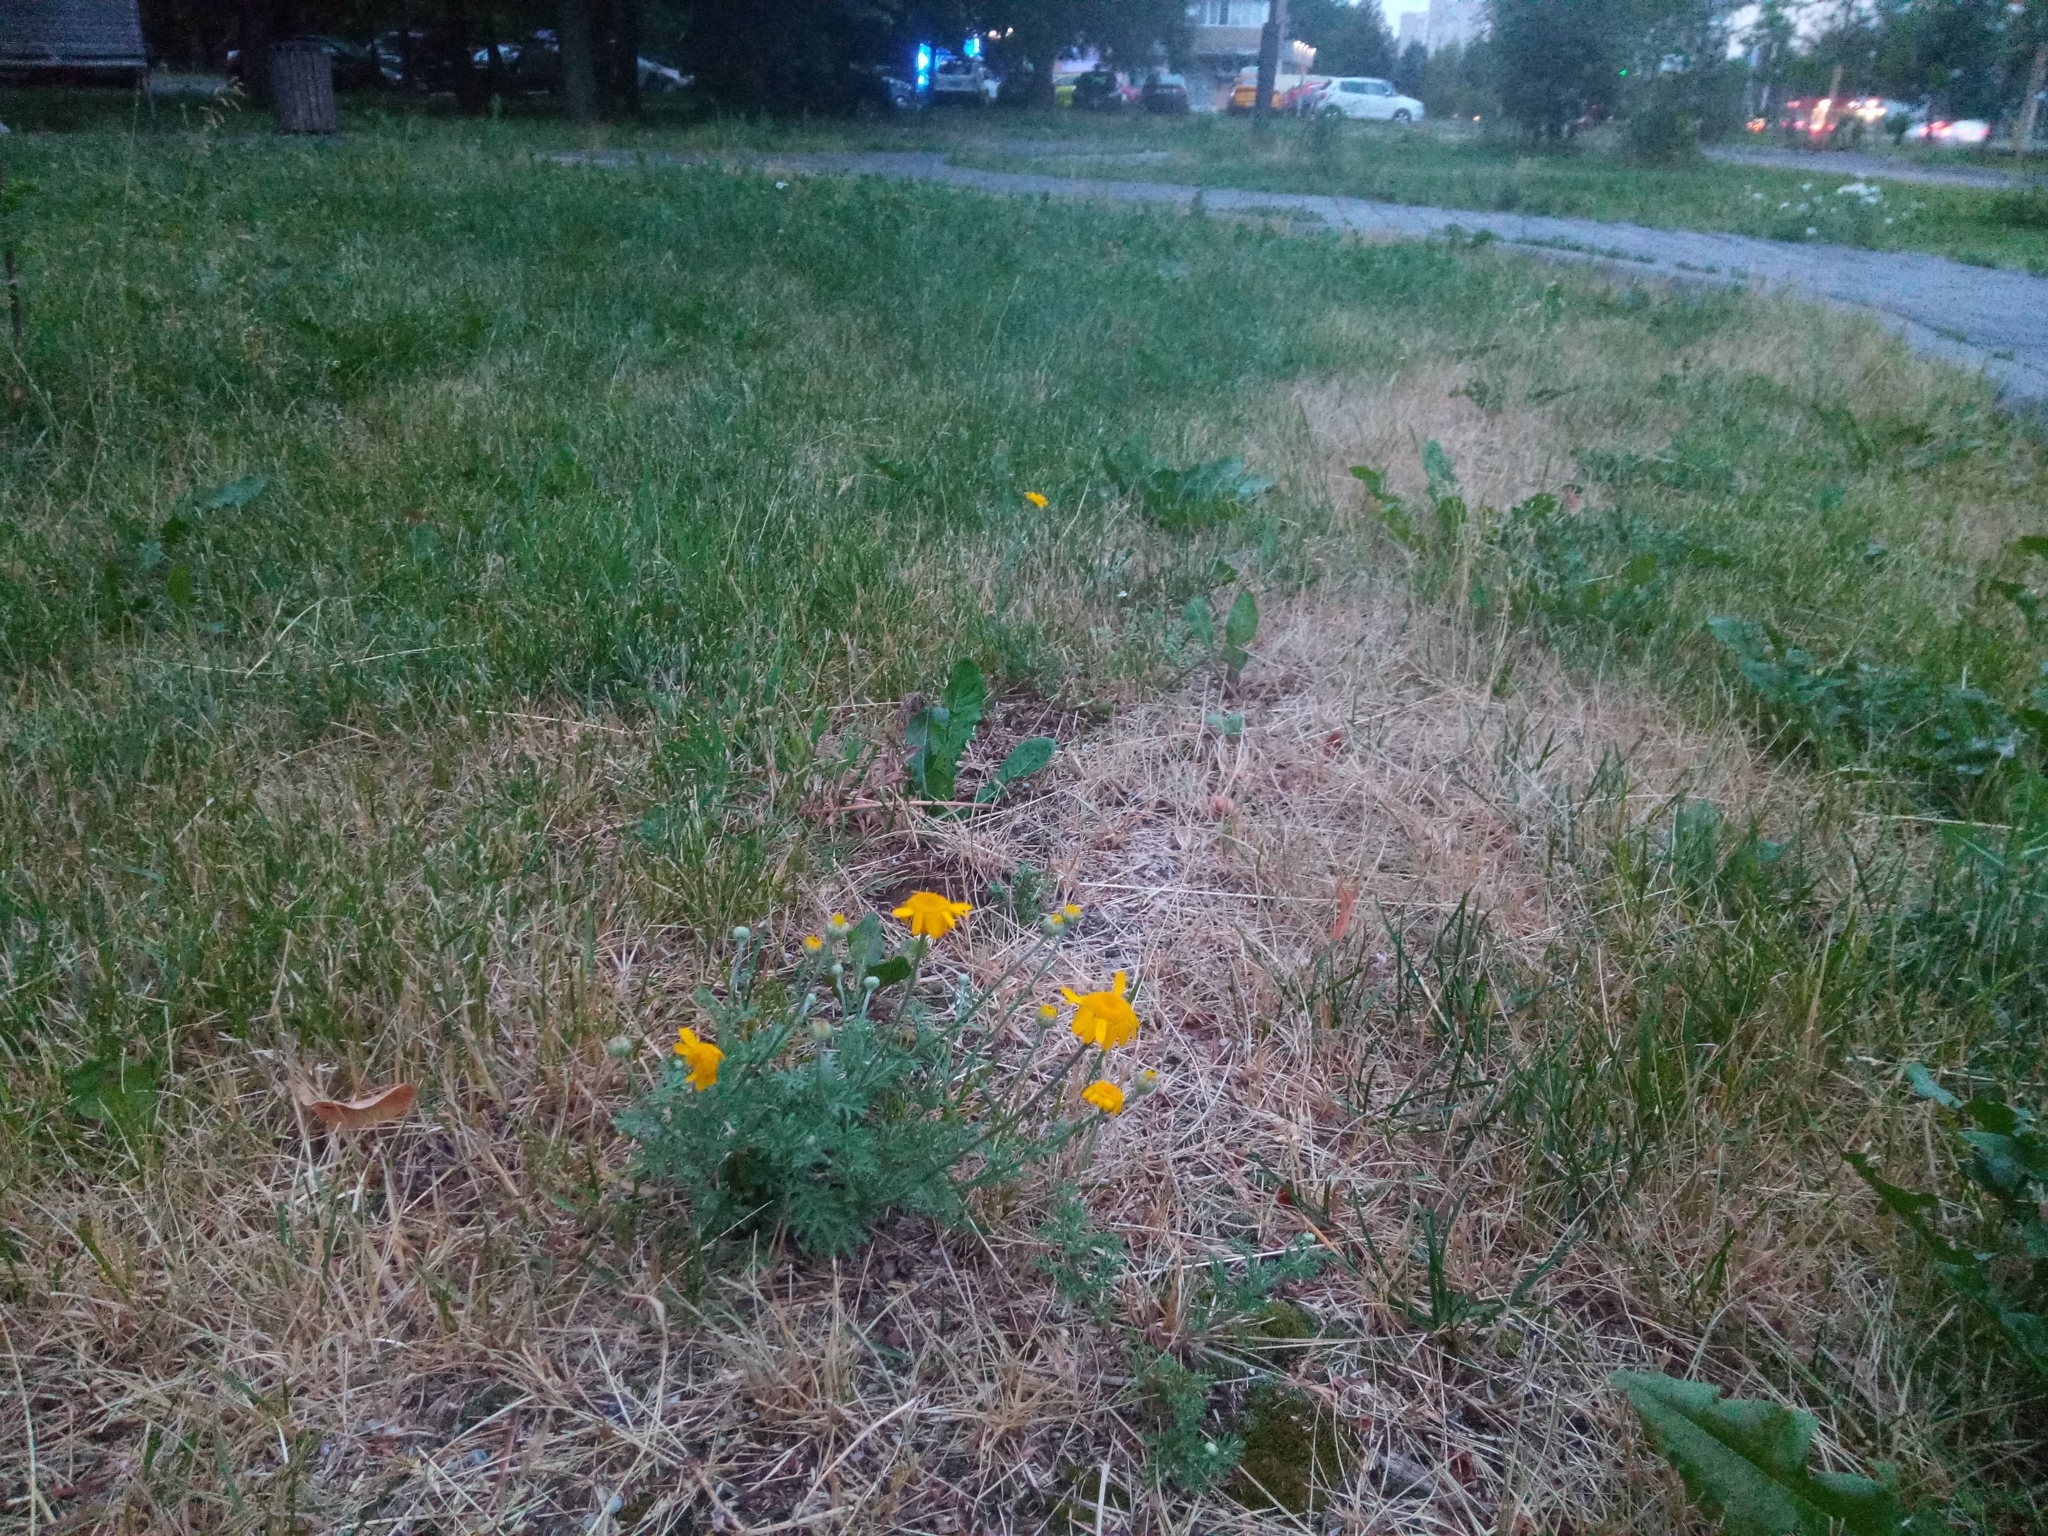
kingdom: Plantae
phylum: Tracheophyta
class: Magnoliopsida
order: Asterales
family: Asteraceae
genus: Cota
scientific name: Cota tinctoria
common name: Golden chamomile
